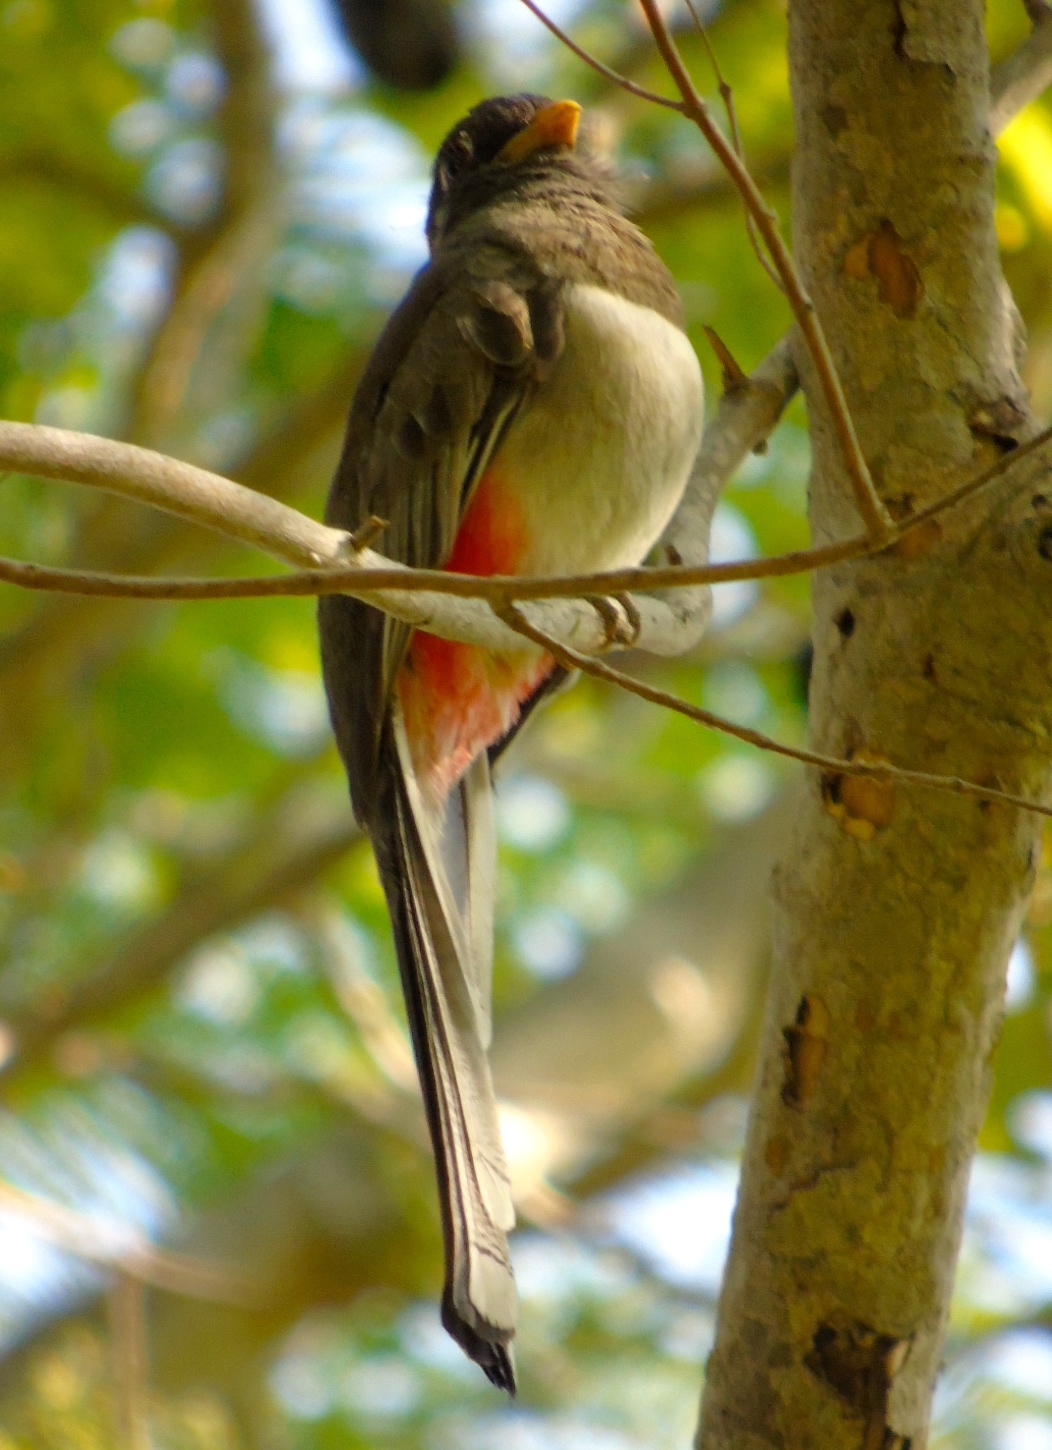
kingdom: Animalia
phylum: Chordata
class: Aves
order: Trogoniformes
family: Trogonidae
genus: Trogon
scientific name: Trogon elegans
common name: Elegant trogon
